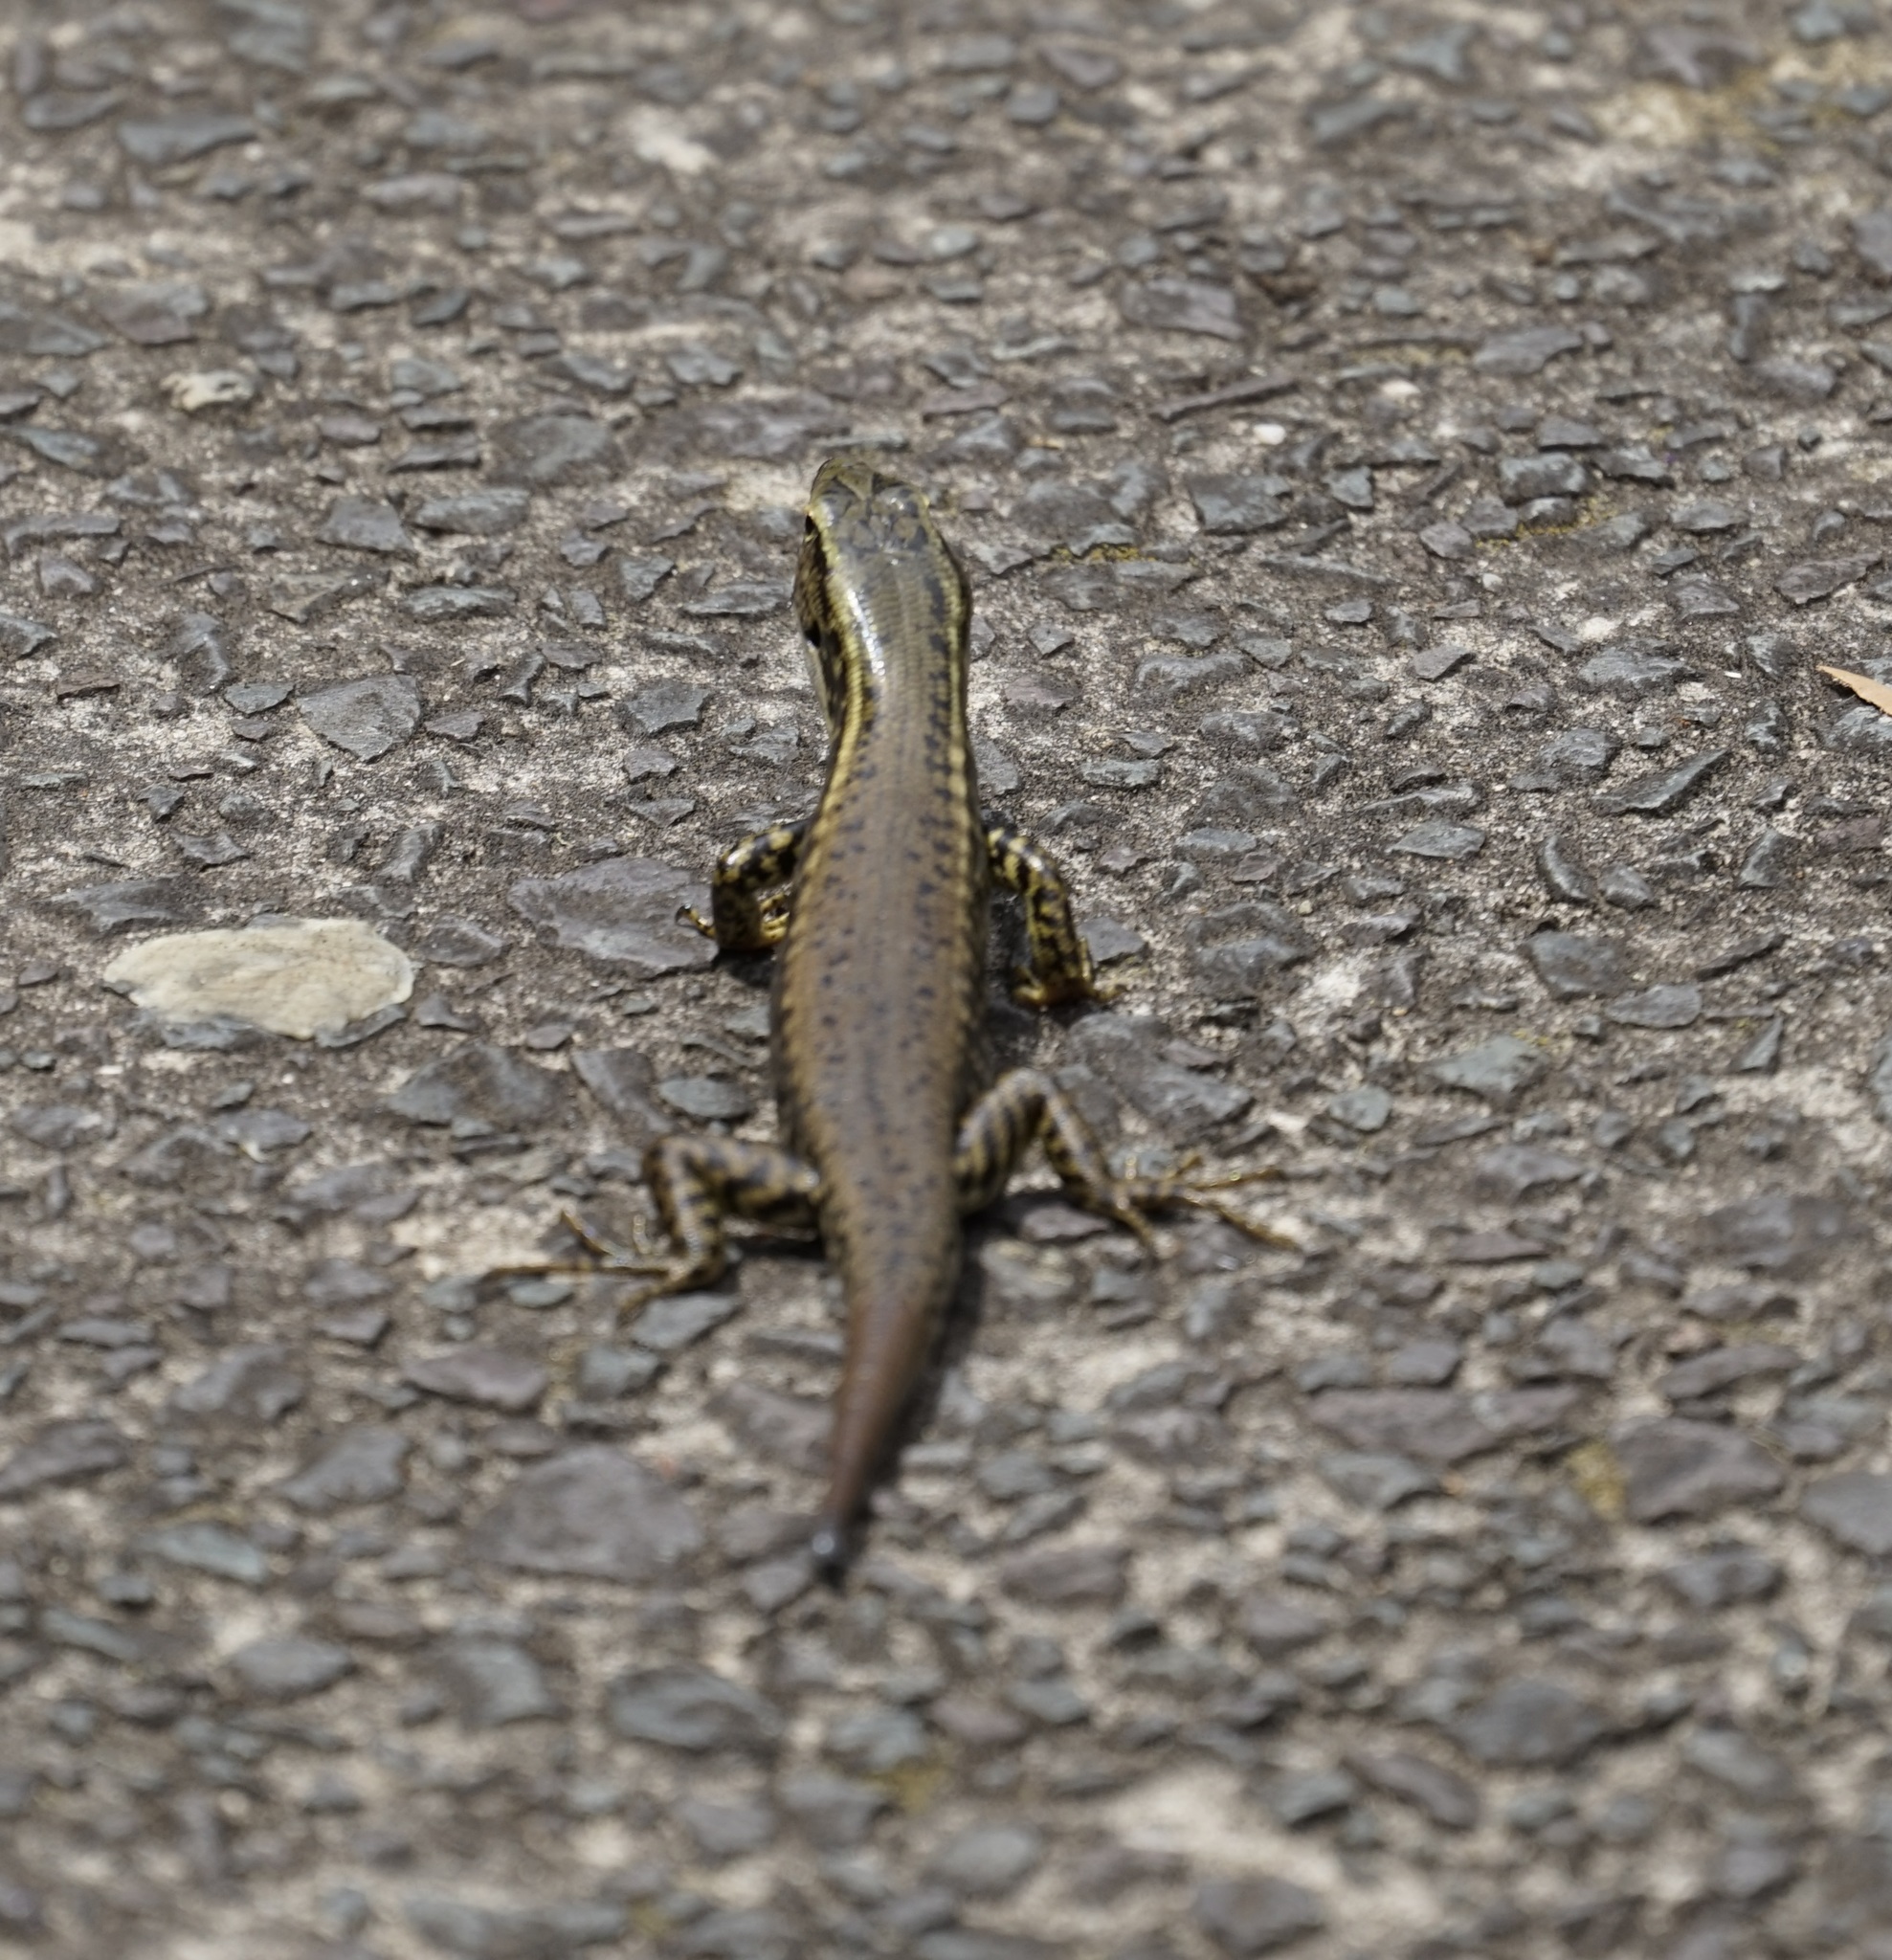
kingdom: Animalia
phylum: Chordata
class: Squamata
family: Scincidae
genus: Eulamprus
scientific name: Eulamprus quoyii
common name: Eastern water skink
